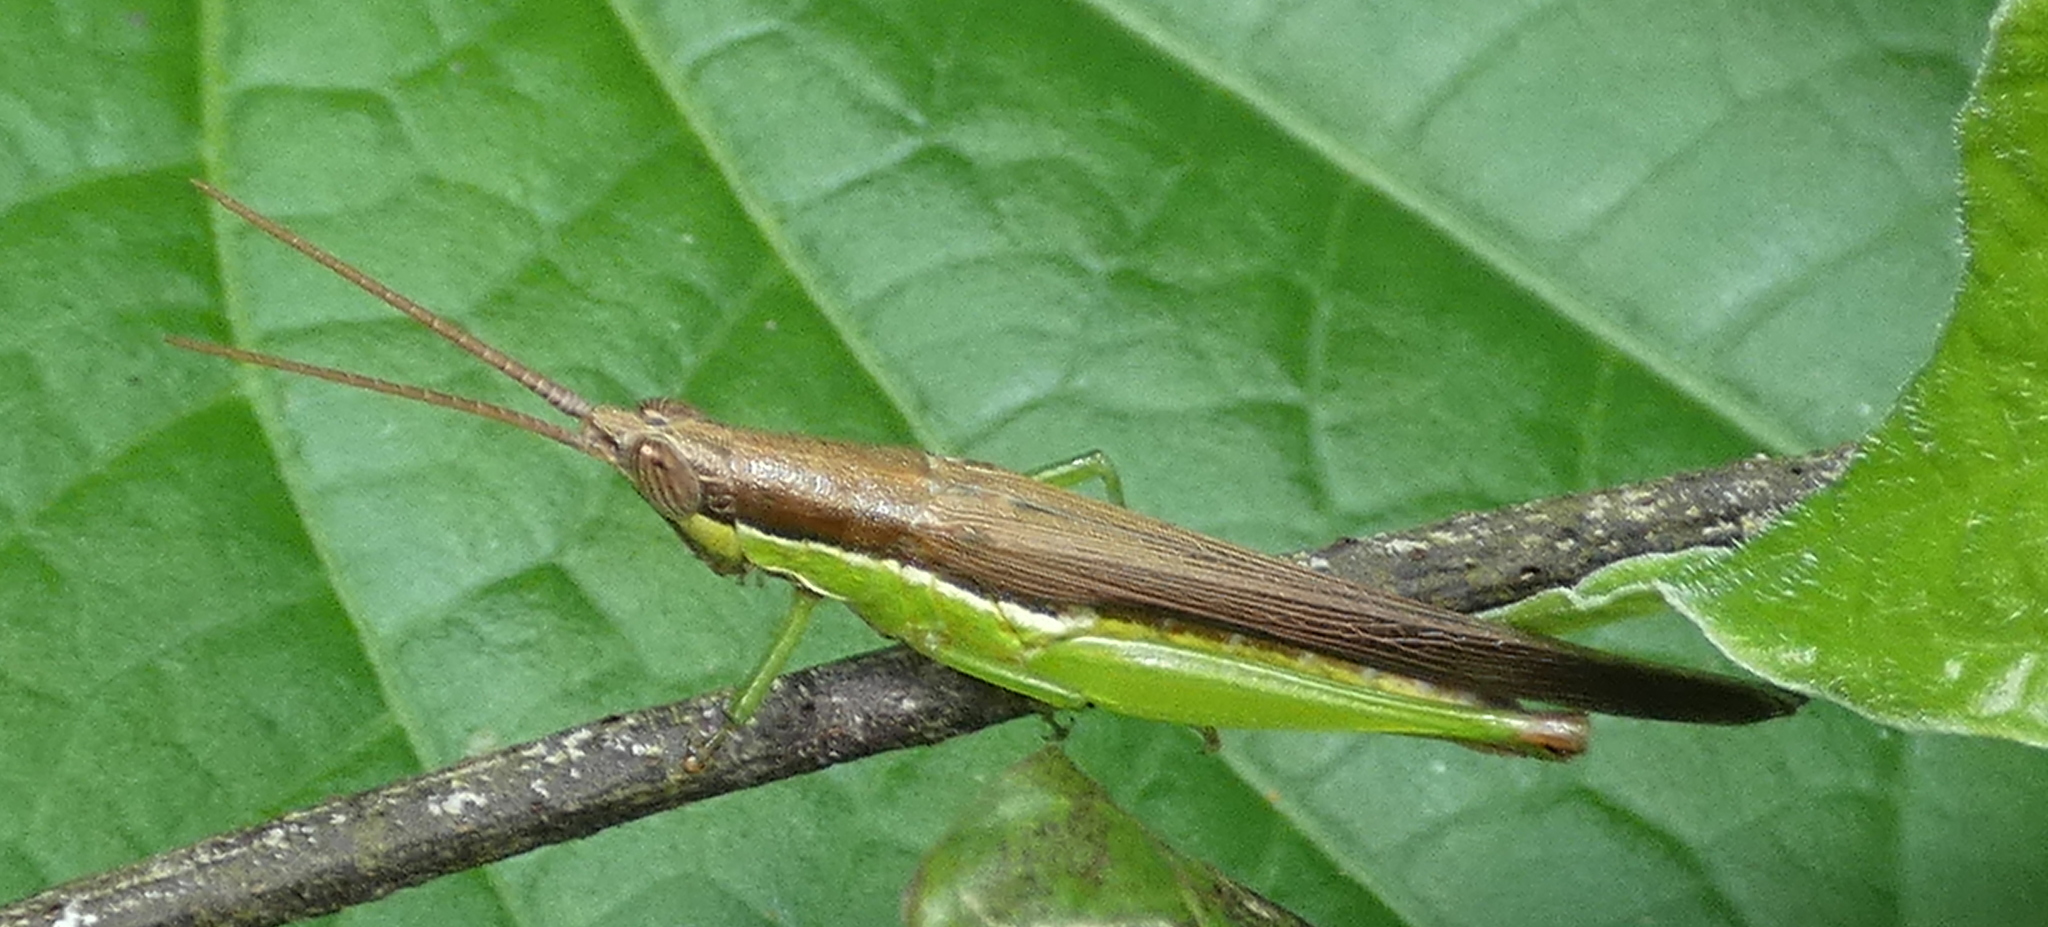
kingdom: Animalia
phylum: Arthropoda
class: Insecta
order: Orthoptera
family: Acrididae
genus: Stenopola
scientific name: Stenopola dorsalis
